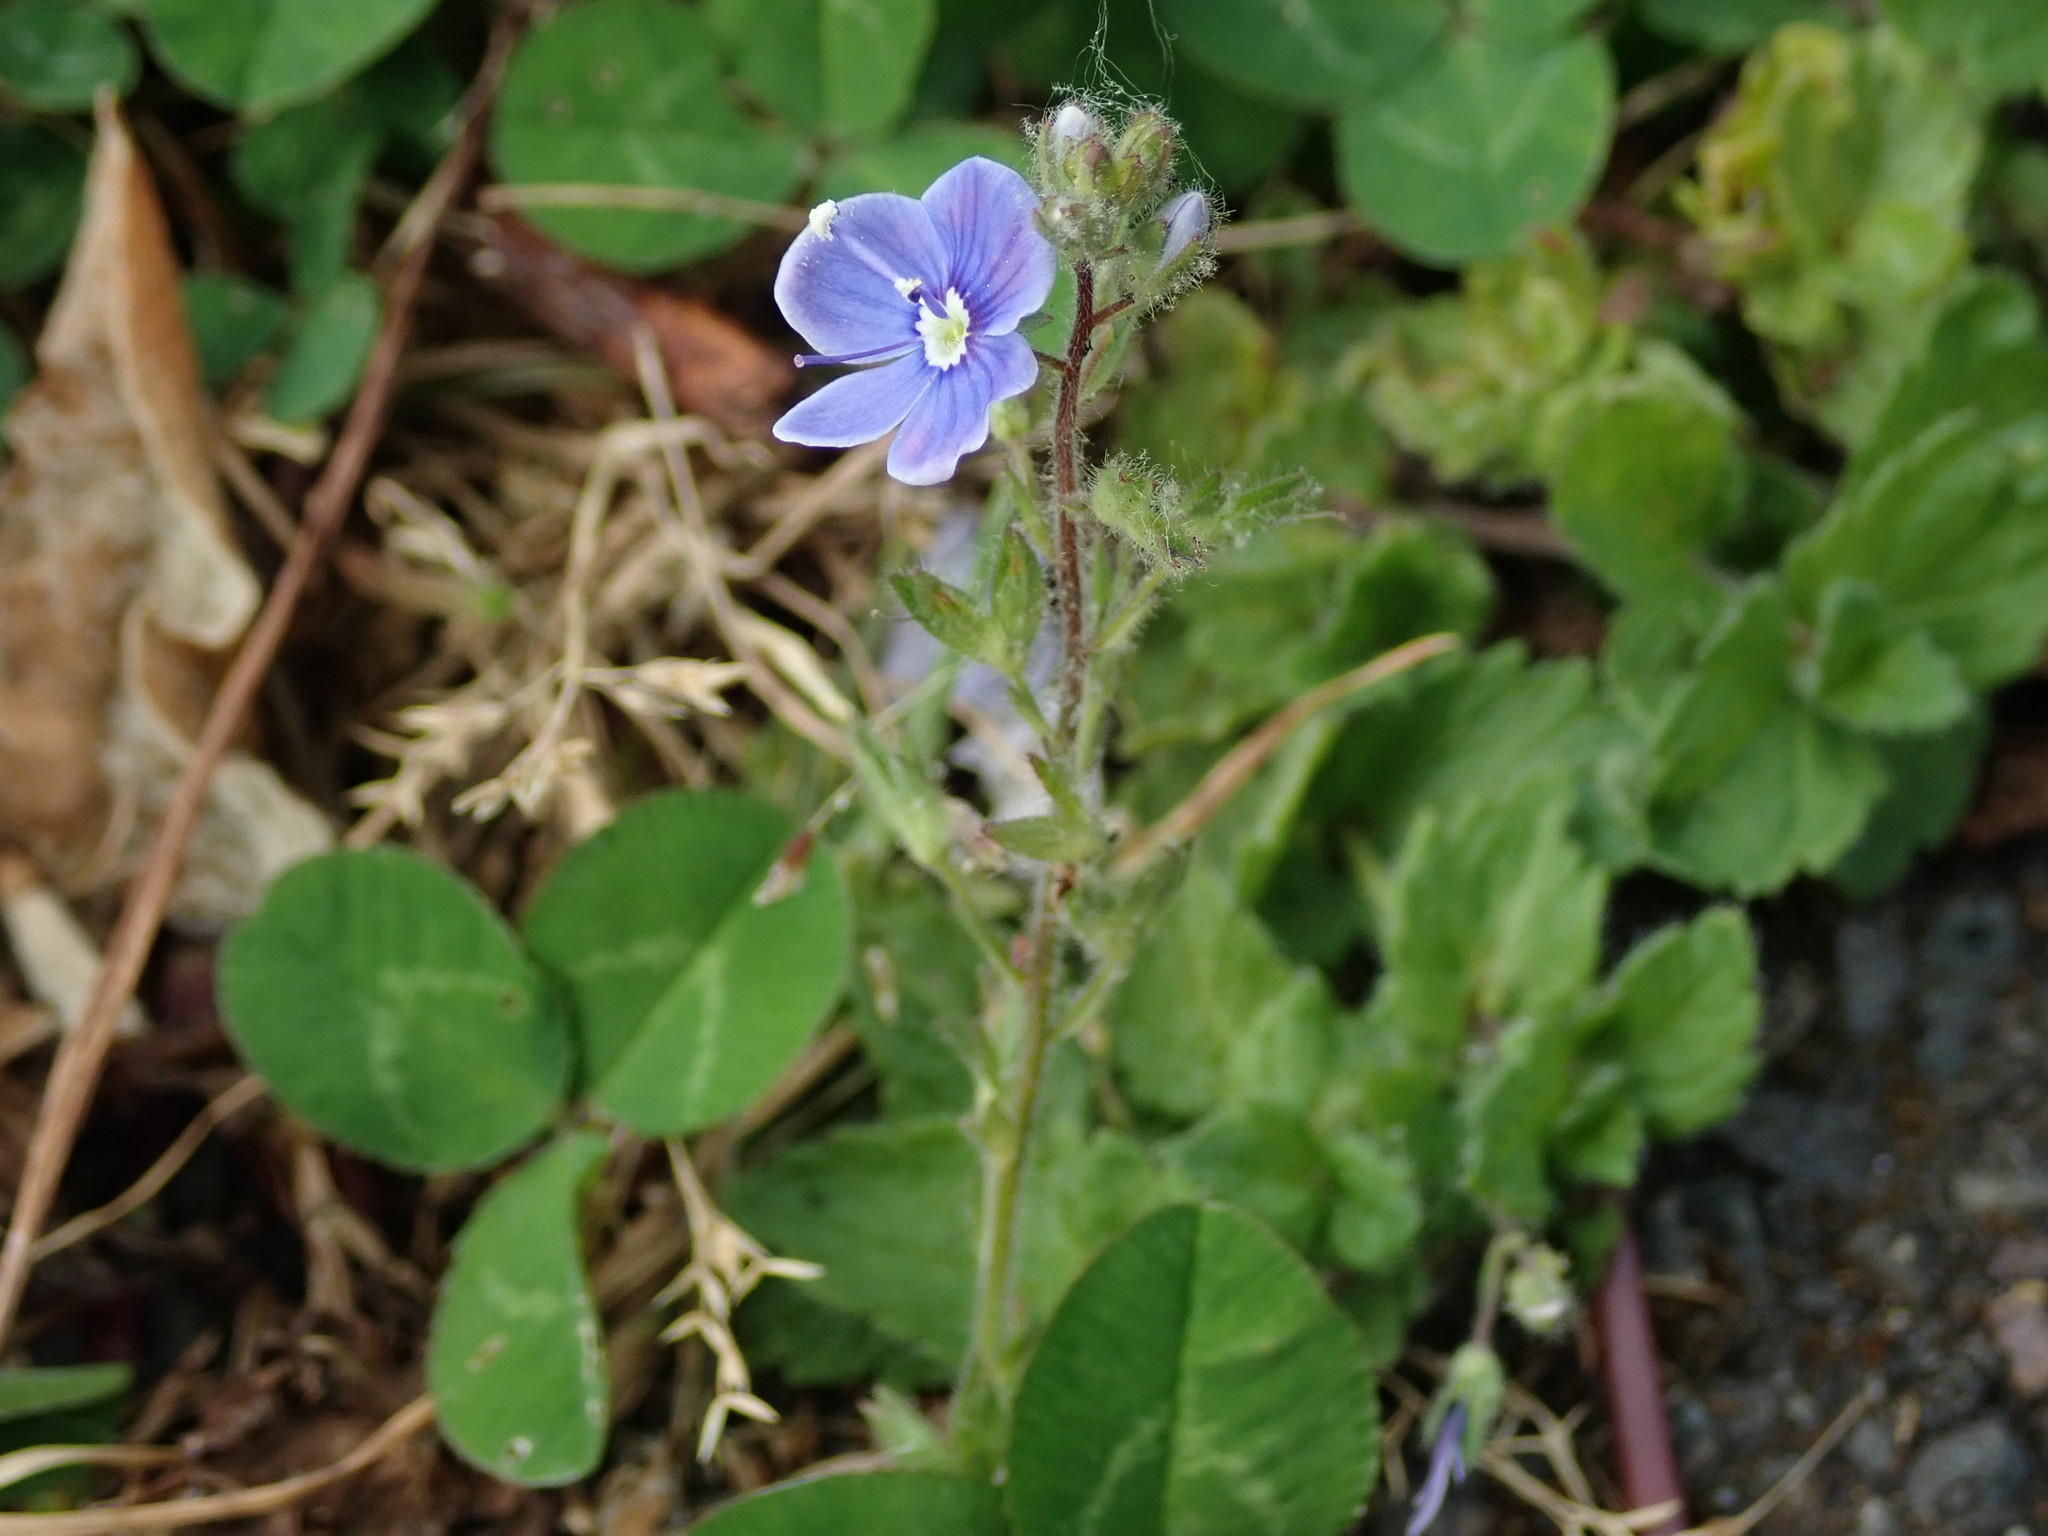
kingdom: Plantae
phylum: Tracheophyta
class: Magnoliopsida
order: Lamiales
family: Plantaginaceae
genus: Veronica
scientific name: Veronica chamaedrys
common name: Germander speedwell
